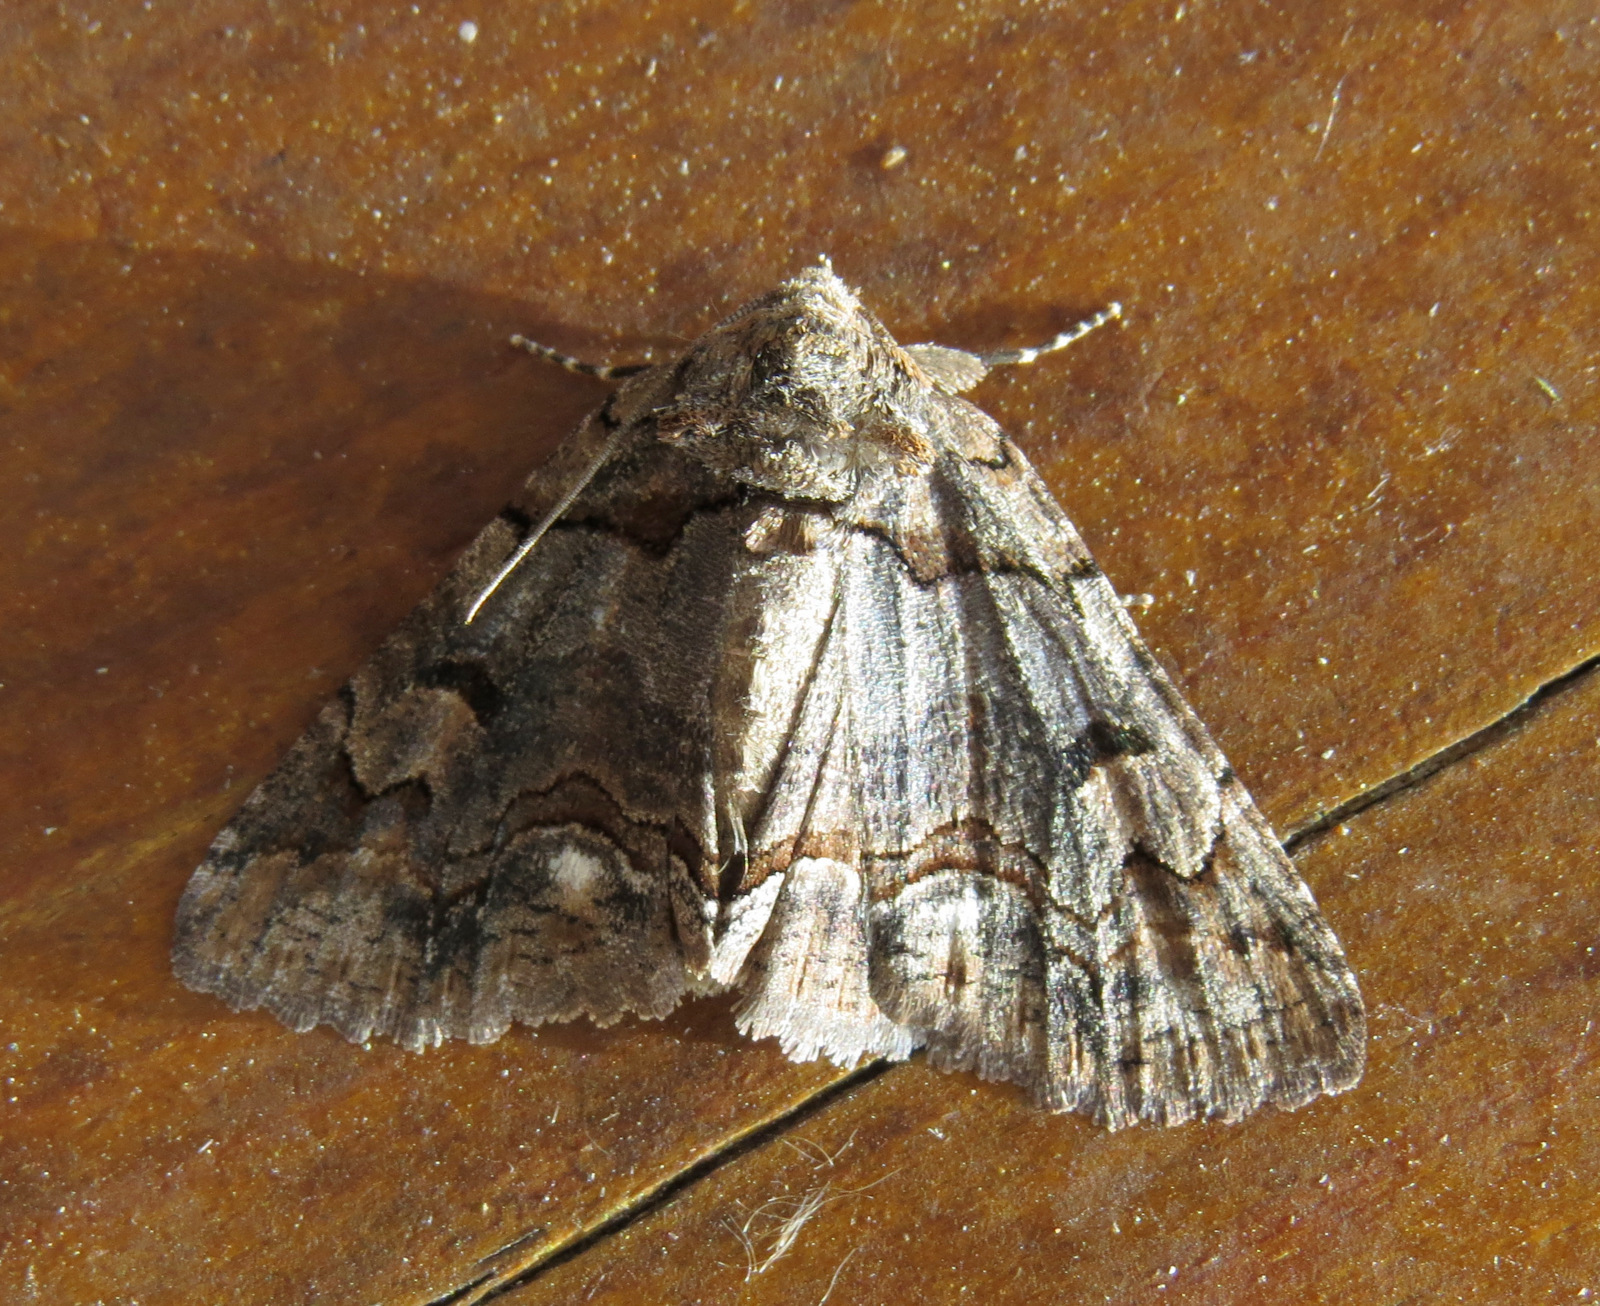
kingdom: Animalia
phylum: Arthropoda
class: Insecta
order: Lepidoptera
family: Erebidae
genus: Zale
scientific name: Zale helata
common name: Brown-spotted zale moth
